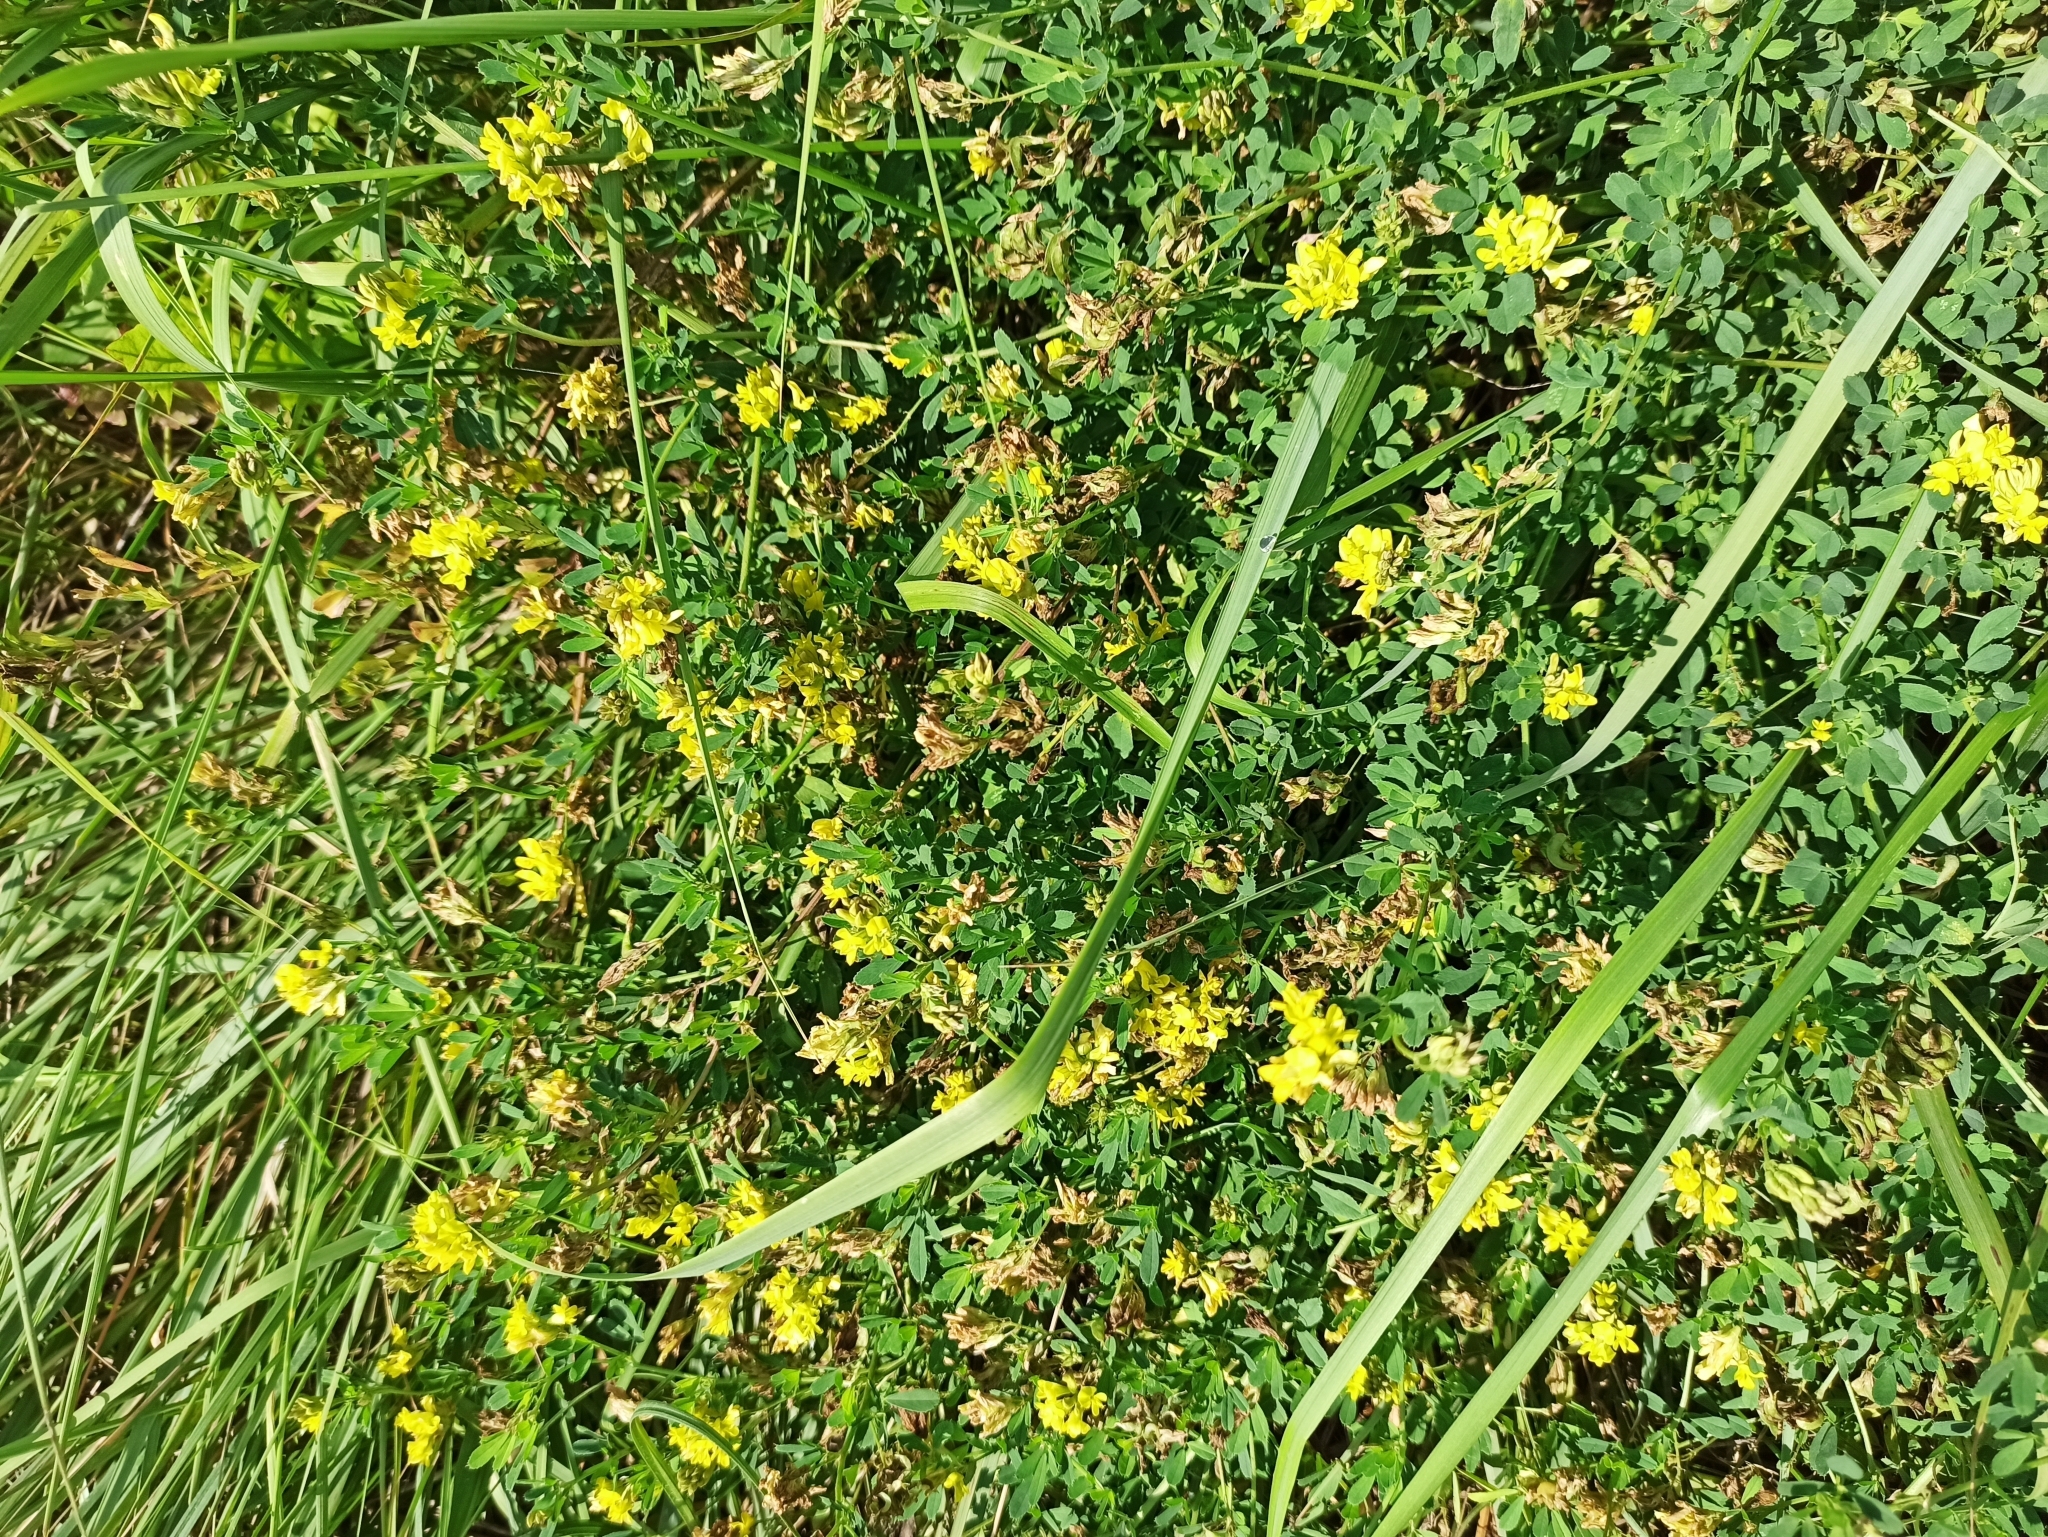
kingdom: Plantae
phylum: Tracheophyta
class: Magnoliopsida
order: Fabales
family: Fabaceae
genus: Medicago
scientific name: Medicago falcata
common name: Sickle medick
